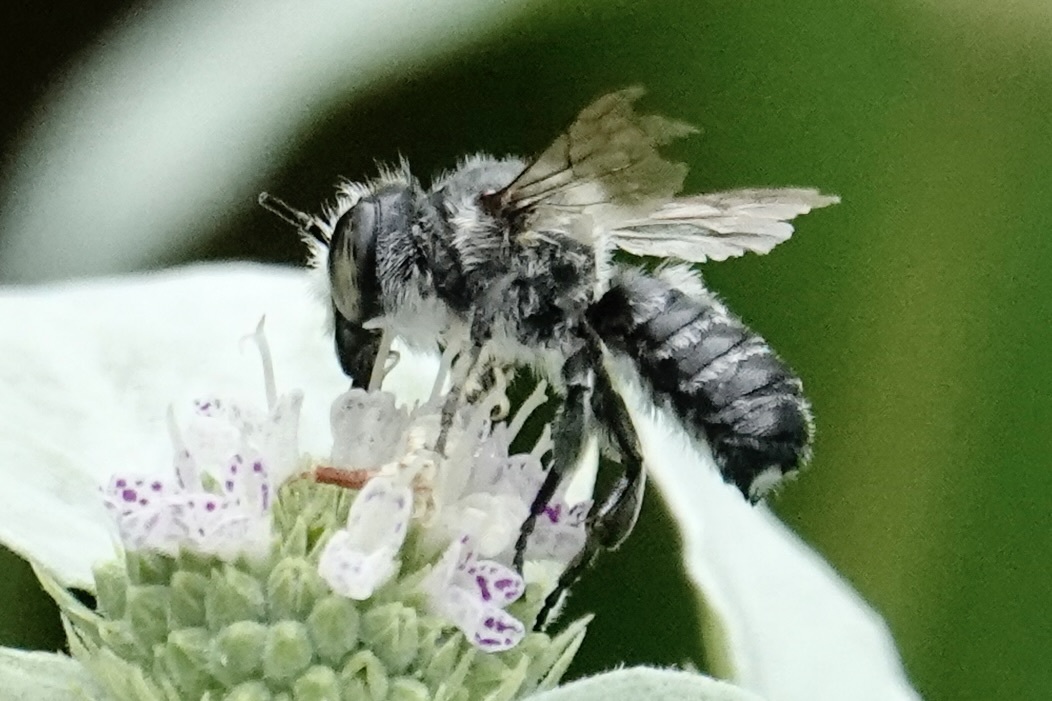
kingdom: Animalia
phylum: Arthropoda
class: Insecta
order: Hymenoptera
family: Megachilidae
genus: Megachile
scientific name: Megachile mendica
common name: Flat-tailed leafcutter
